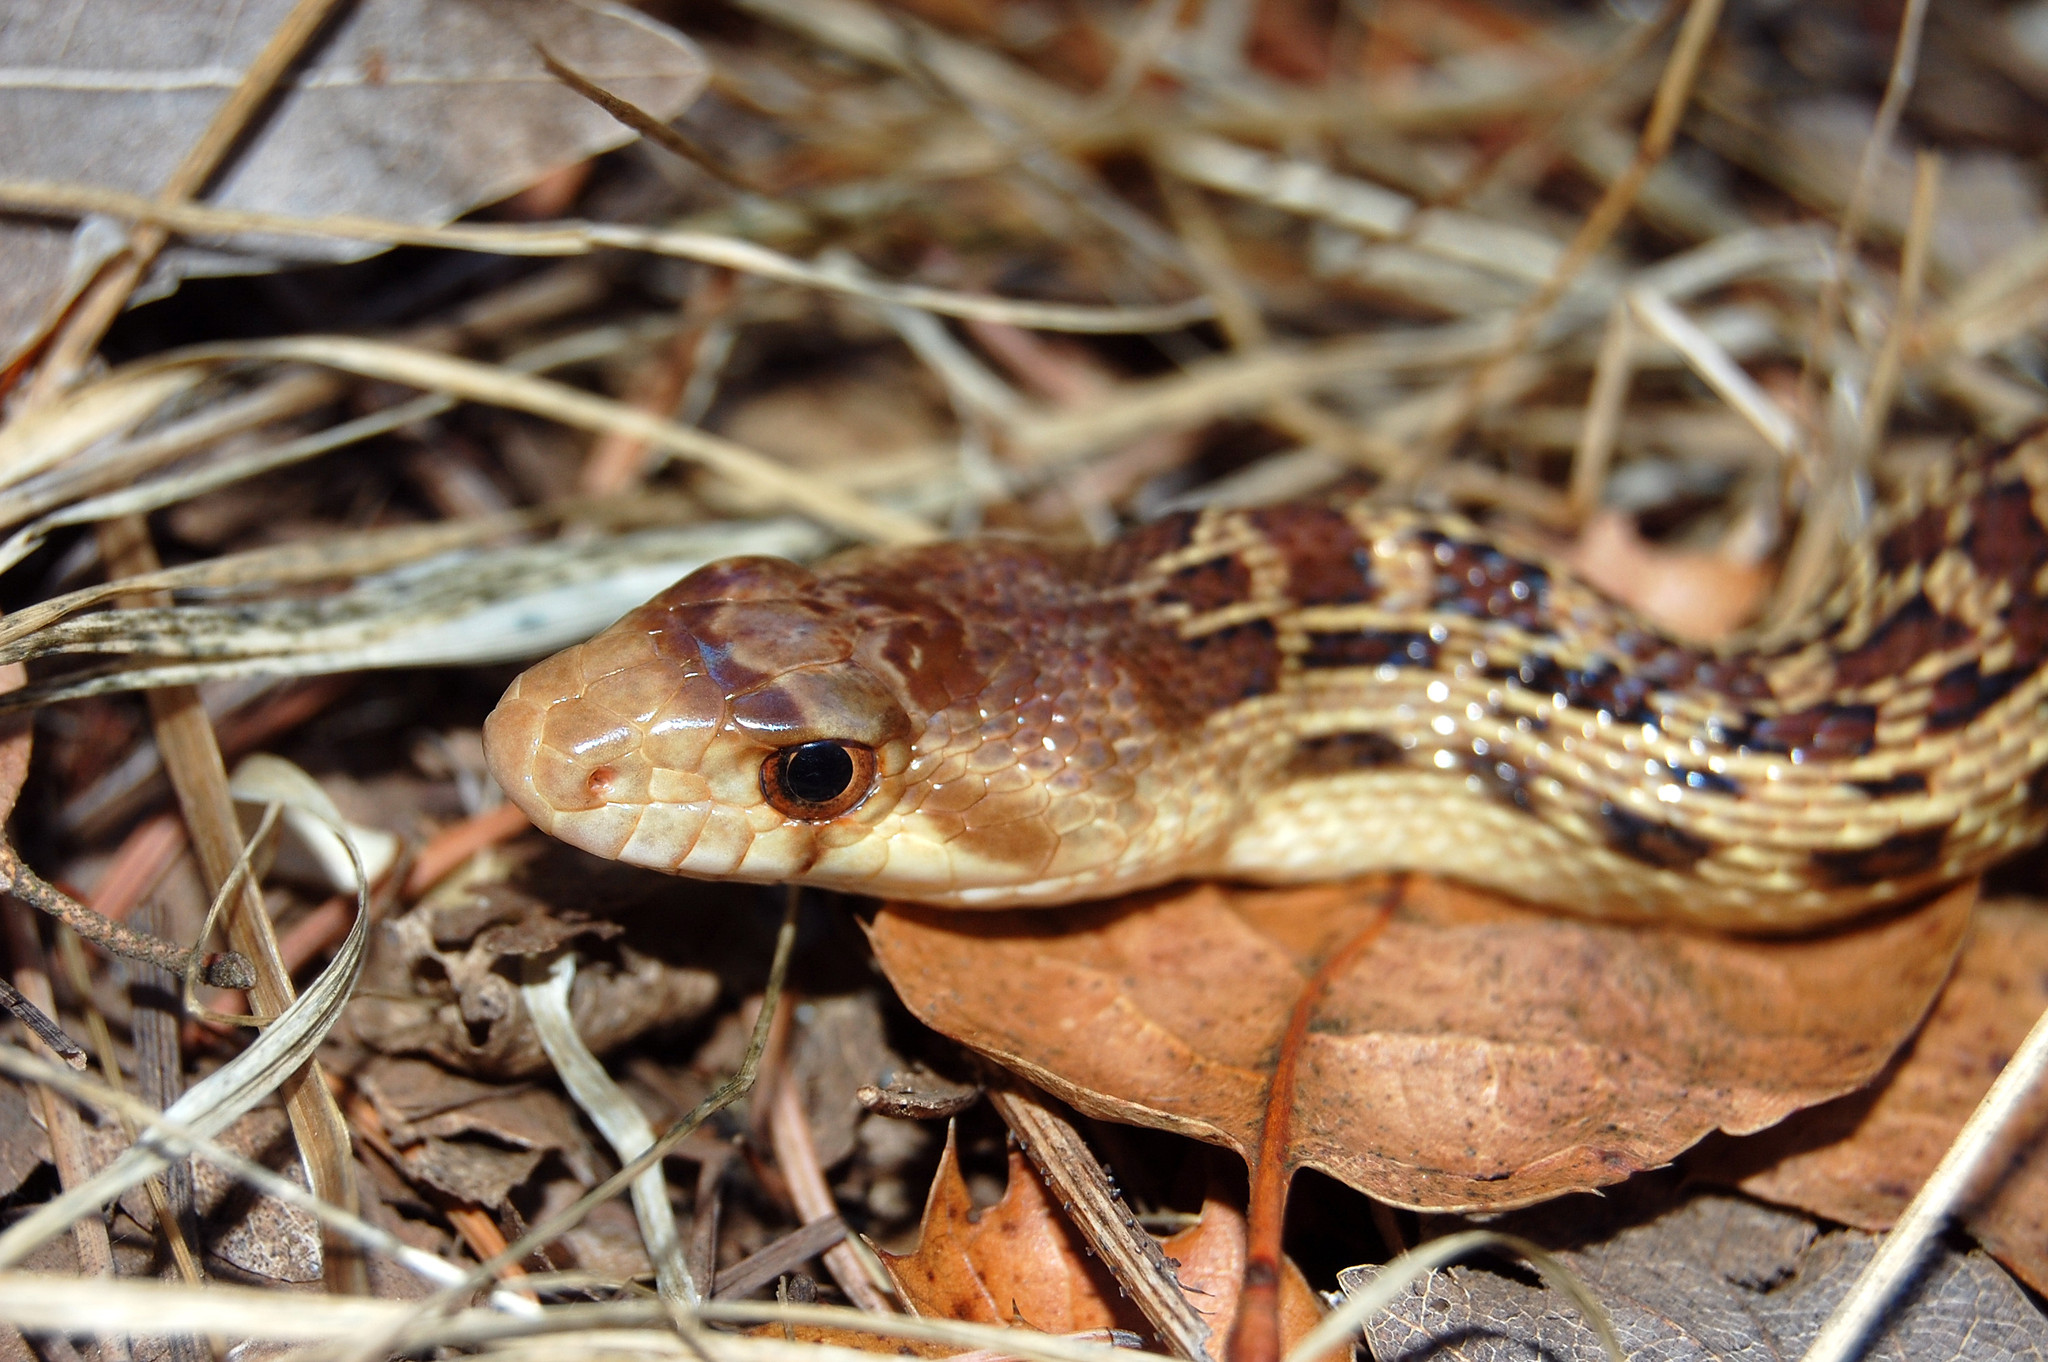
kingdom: Animalia
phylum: Chordata
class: Squamata
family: Colubridae
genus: Pituophis
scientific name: Pituophis catenifer
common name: Gopher snake
